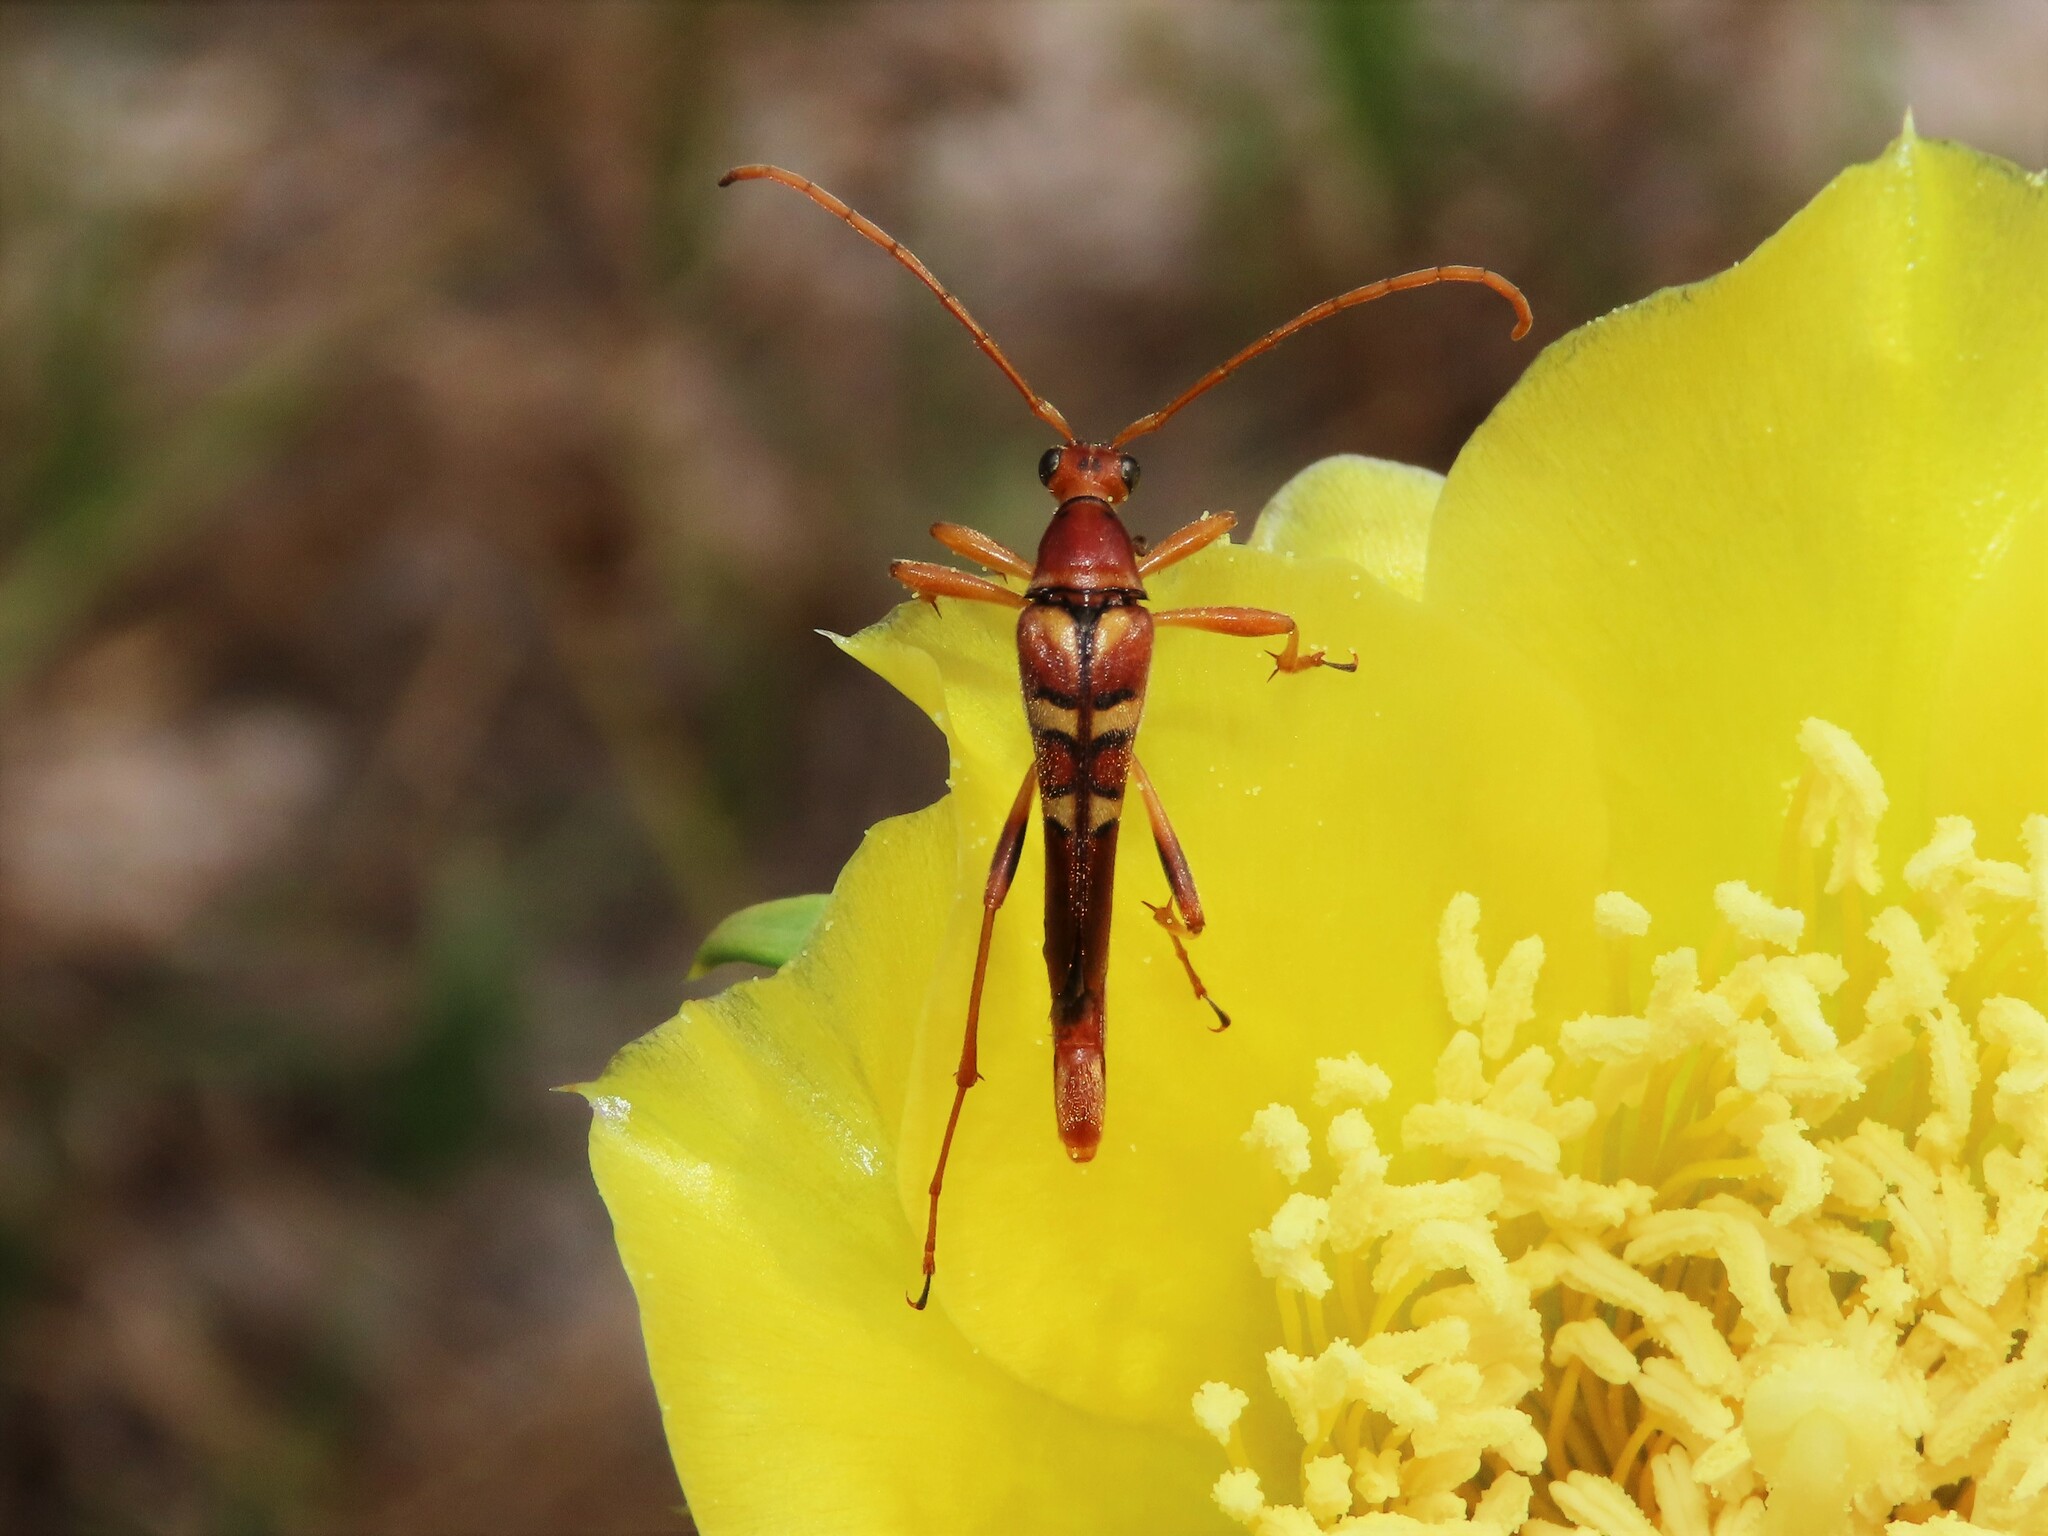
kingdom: Animalia
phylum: Arthropoda
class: Insecta
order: Coleoptera
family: Cerambycidae
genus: Strangalia
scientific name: Strangalia strigosa
